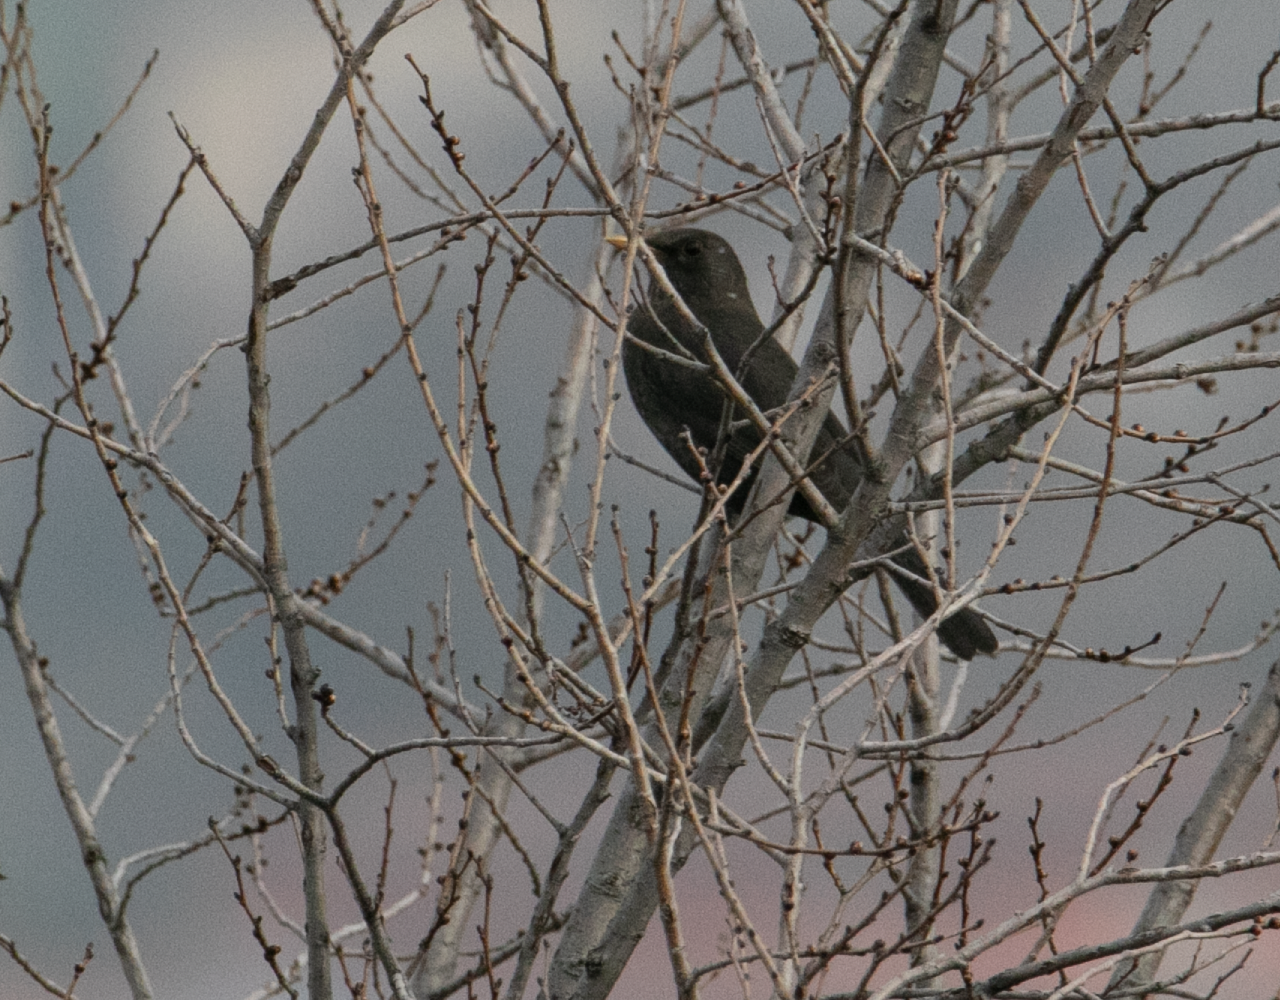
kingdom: Animalia
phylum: Chordata
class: Aves
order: Passeriformes
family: Turdidae
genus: Turdus
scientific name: Turdus merula
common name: Common blackbird
